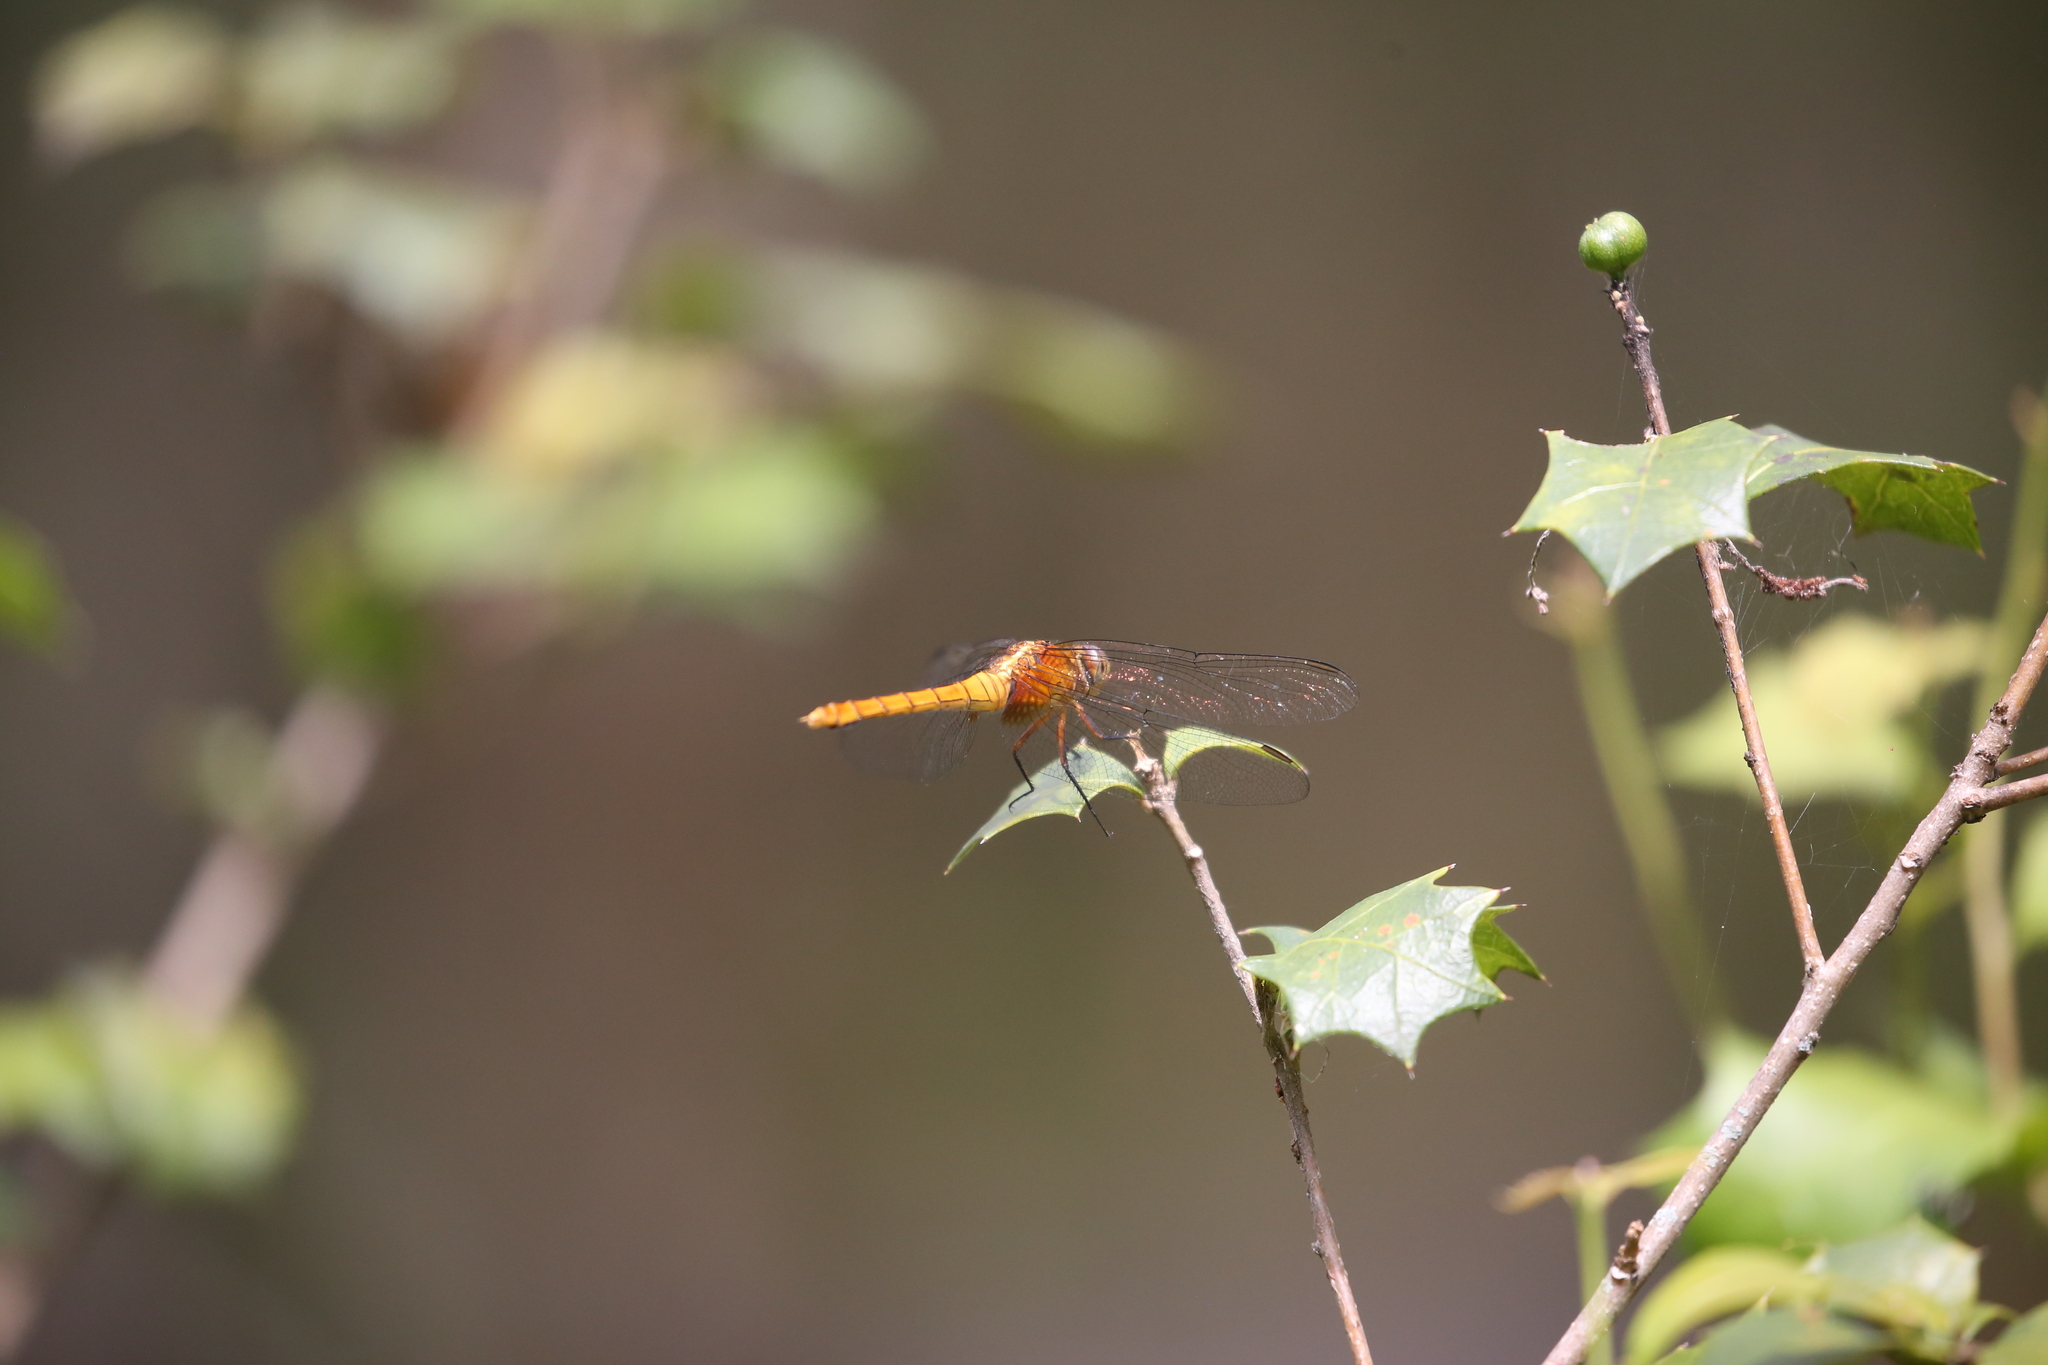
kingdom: Animalia
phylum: Arthropoda
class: Insecta
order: Odonata
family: Libellulidae
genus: Orthetrum
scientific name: Orthetrum villosovittatum
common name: Firery skimmer
